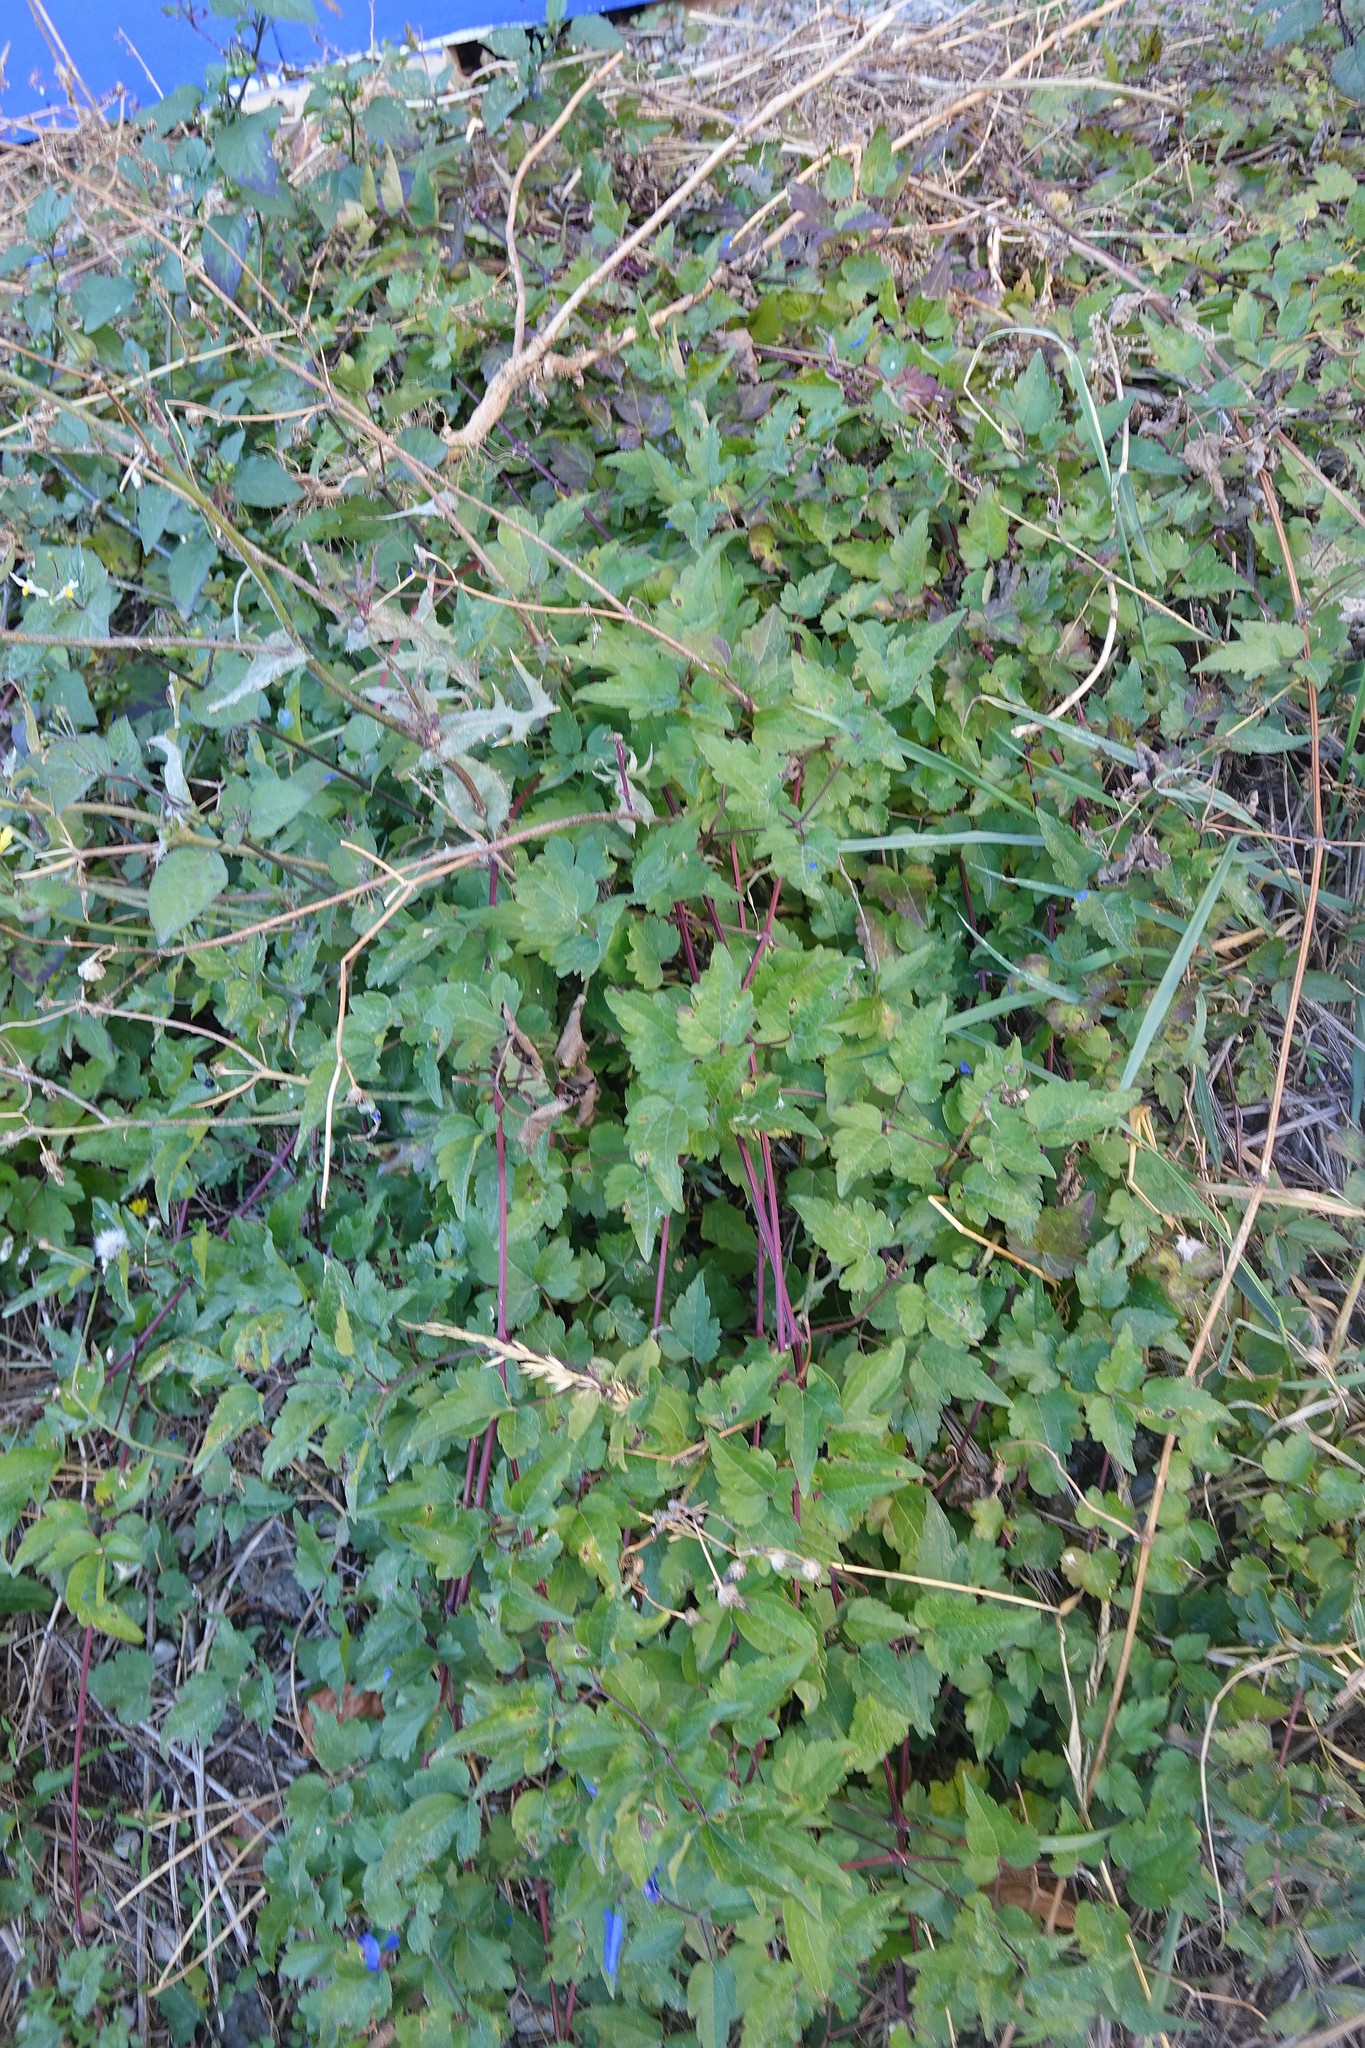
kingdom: Plantae
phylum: Tracheophyta
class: Magnoliopsida
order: Ranunculales
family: Ranunculaceae
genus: Clematis
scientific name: Clematis vitalba
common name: Evergreen clematis
